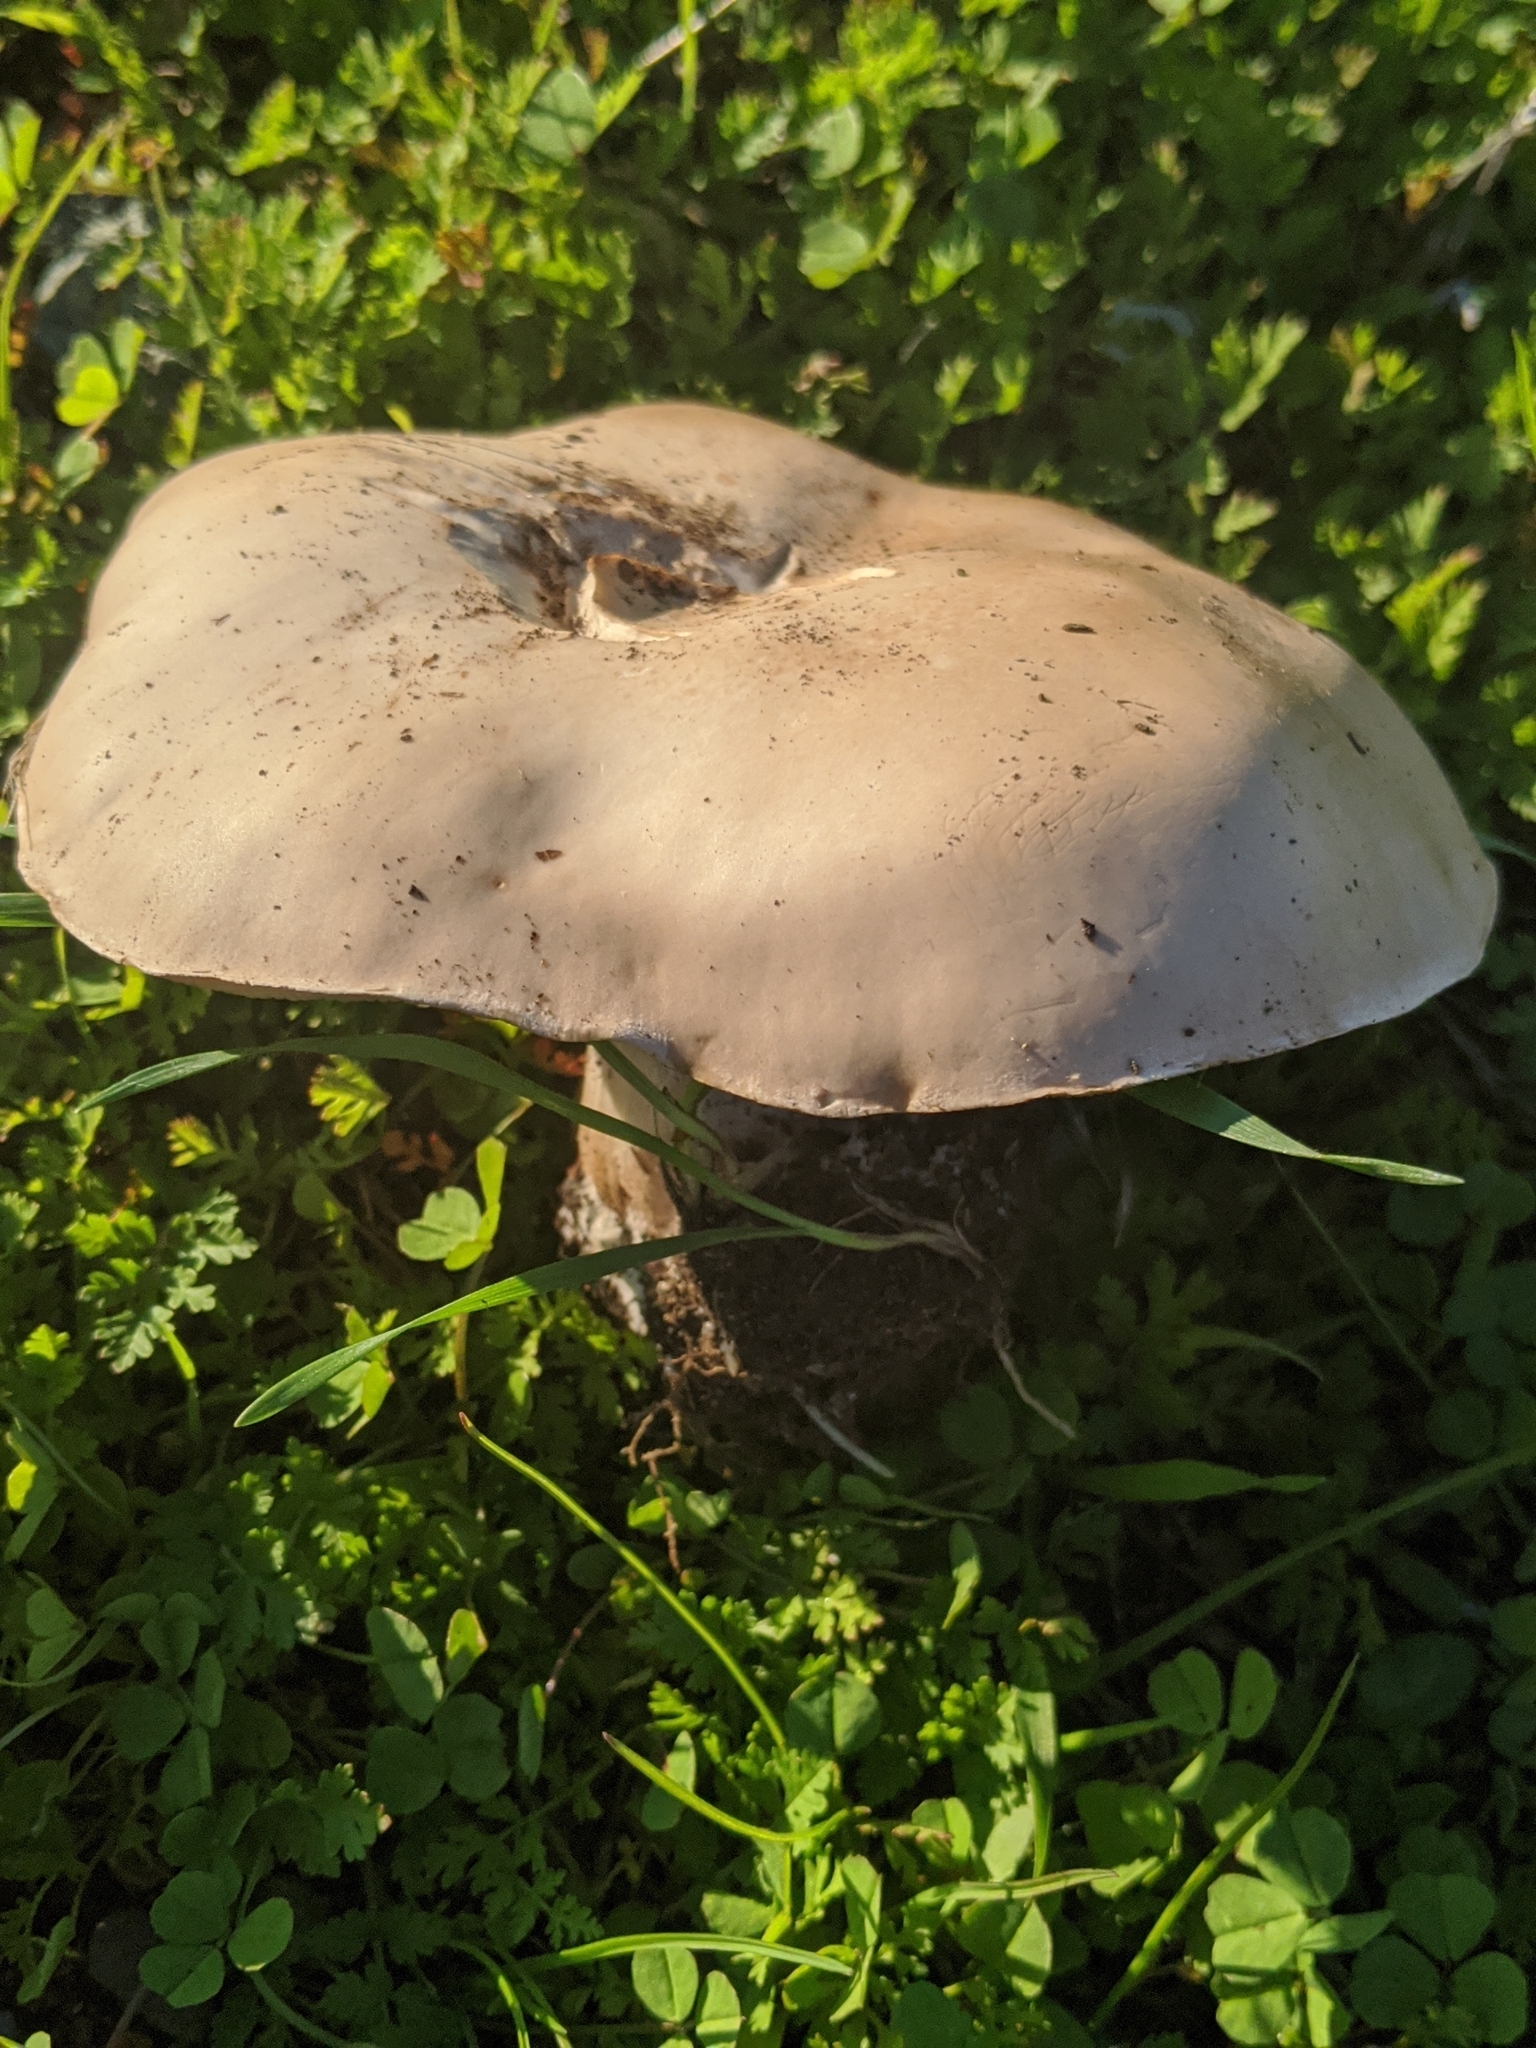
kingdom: Fungi
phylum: Basidiomycota
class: Agaricomycetes
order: Agaricales
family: Tricholomataceae
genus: Collybia
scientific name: Collybia
